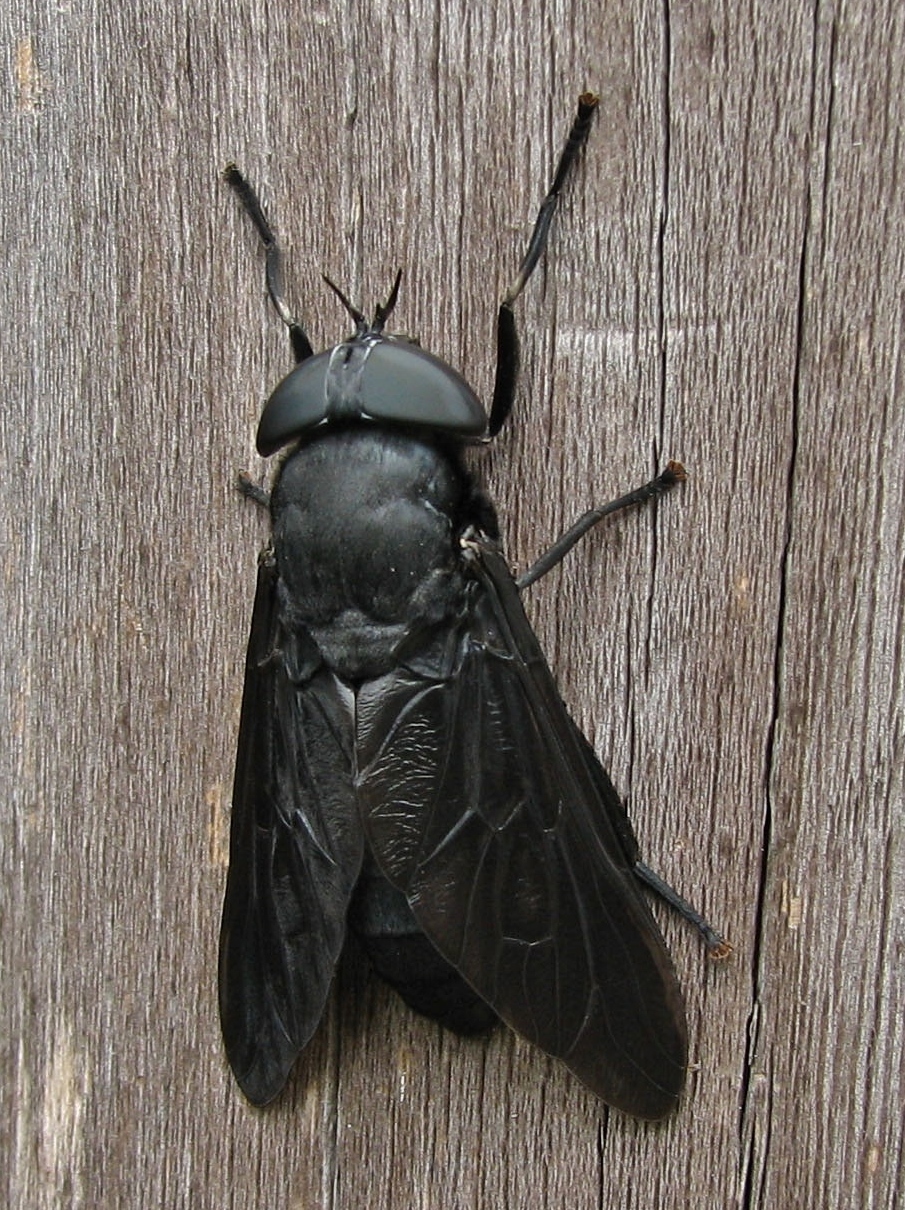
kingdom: Animalia
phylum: Arthropoda
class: Insecta
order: Diptera
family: Tabanidae
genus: Tabanus
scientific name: Tabanus atratus
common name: Black horse fly
